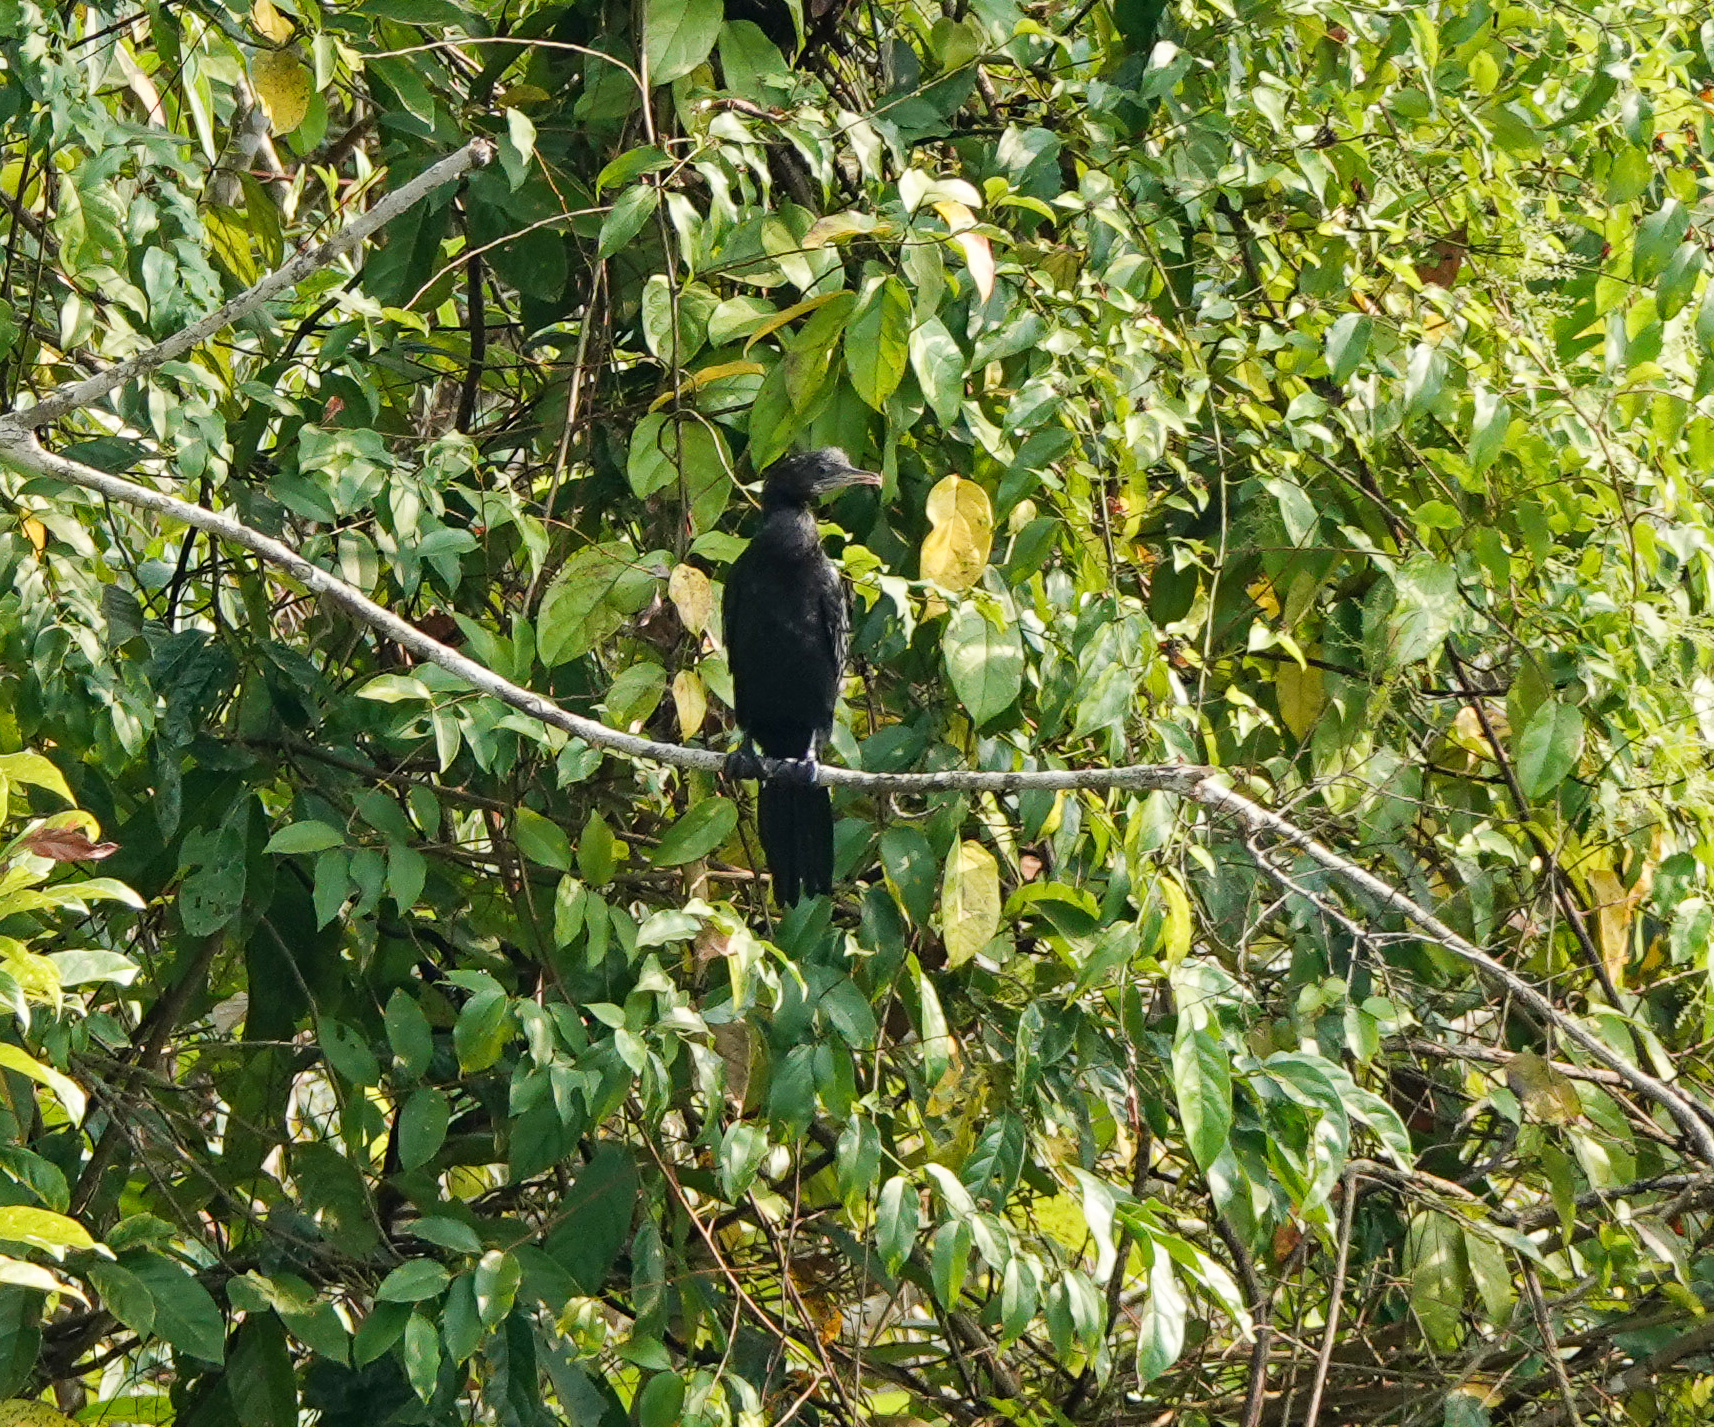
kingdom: Animalia
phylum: Chordata
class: Aves
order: Suliformes
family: Phalacrocoracidae
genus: Microcarbo
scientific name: Microcarbo niger
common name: Little cormorant
